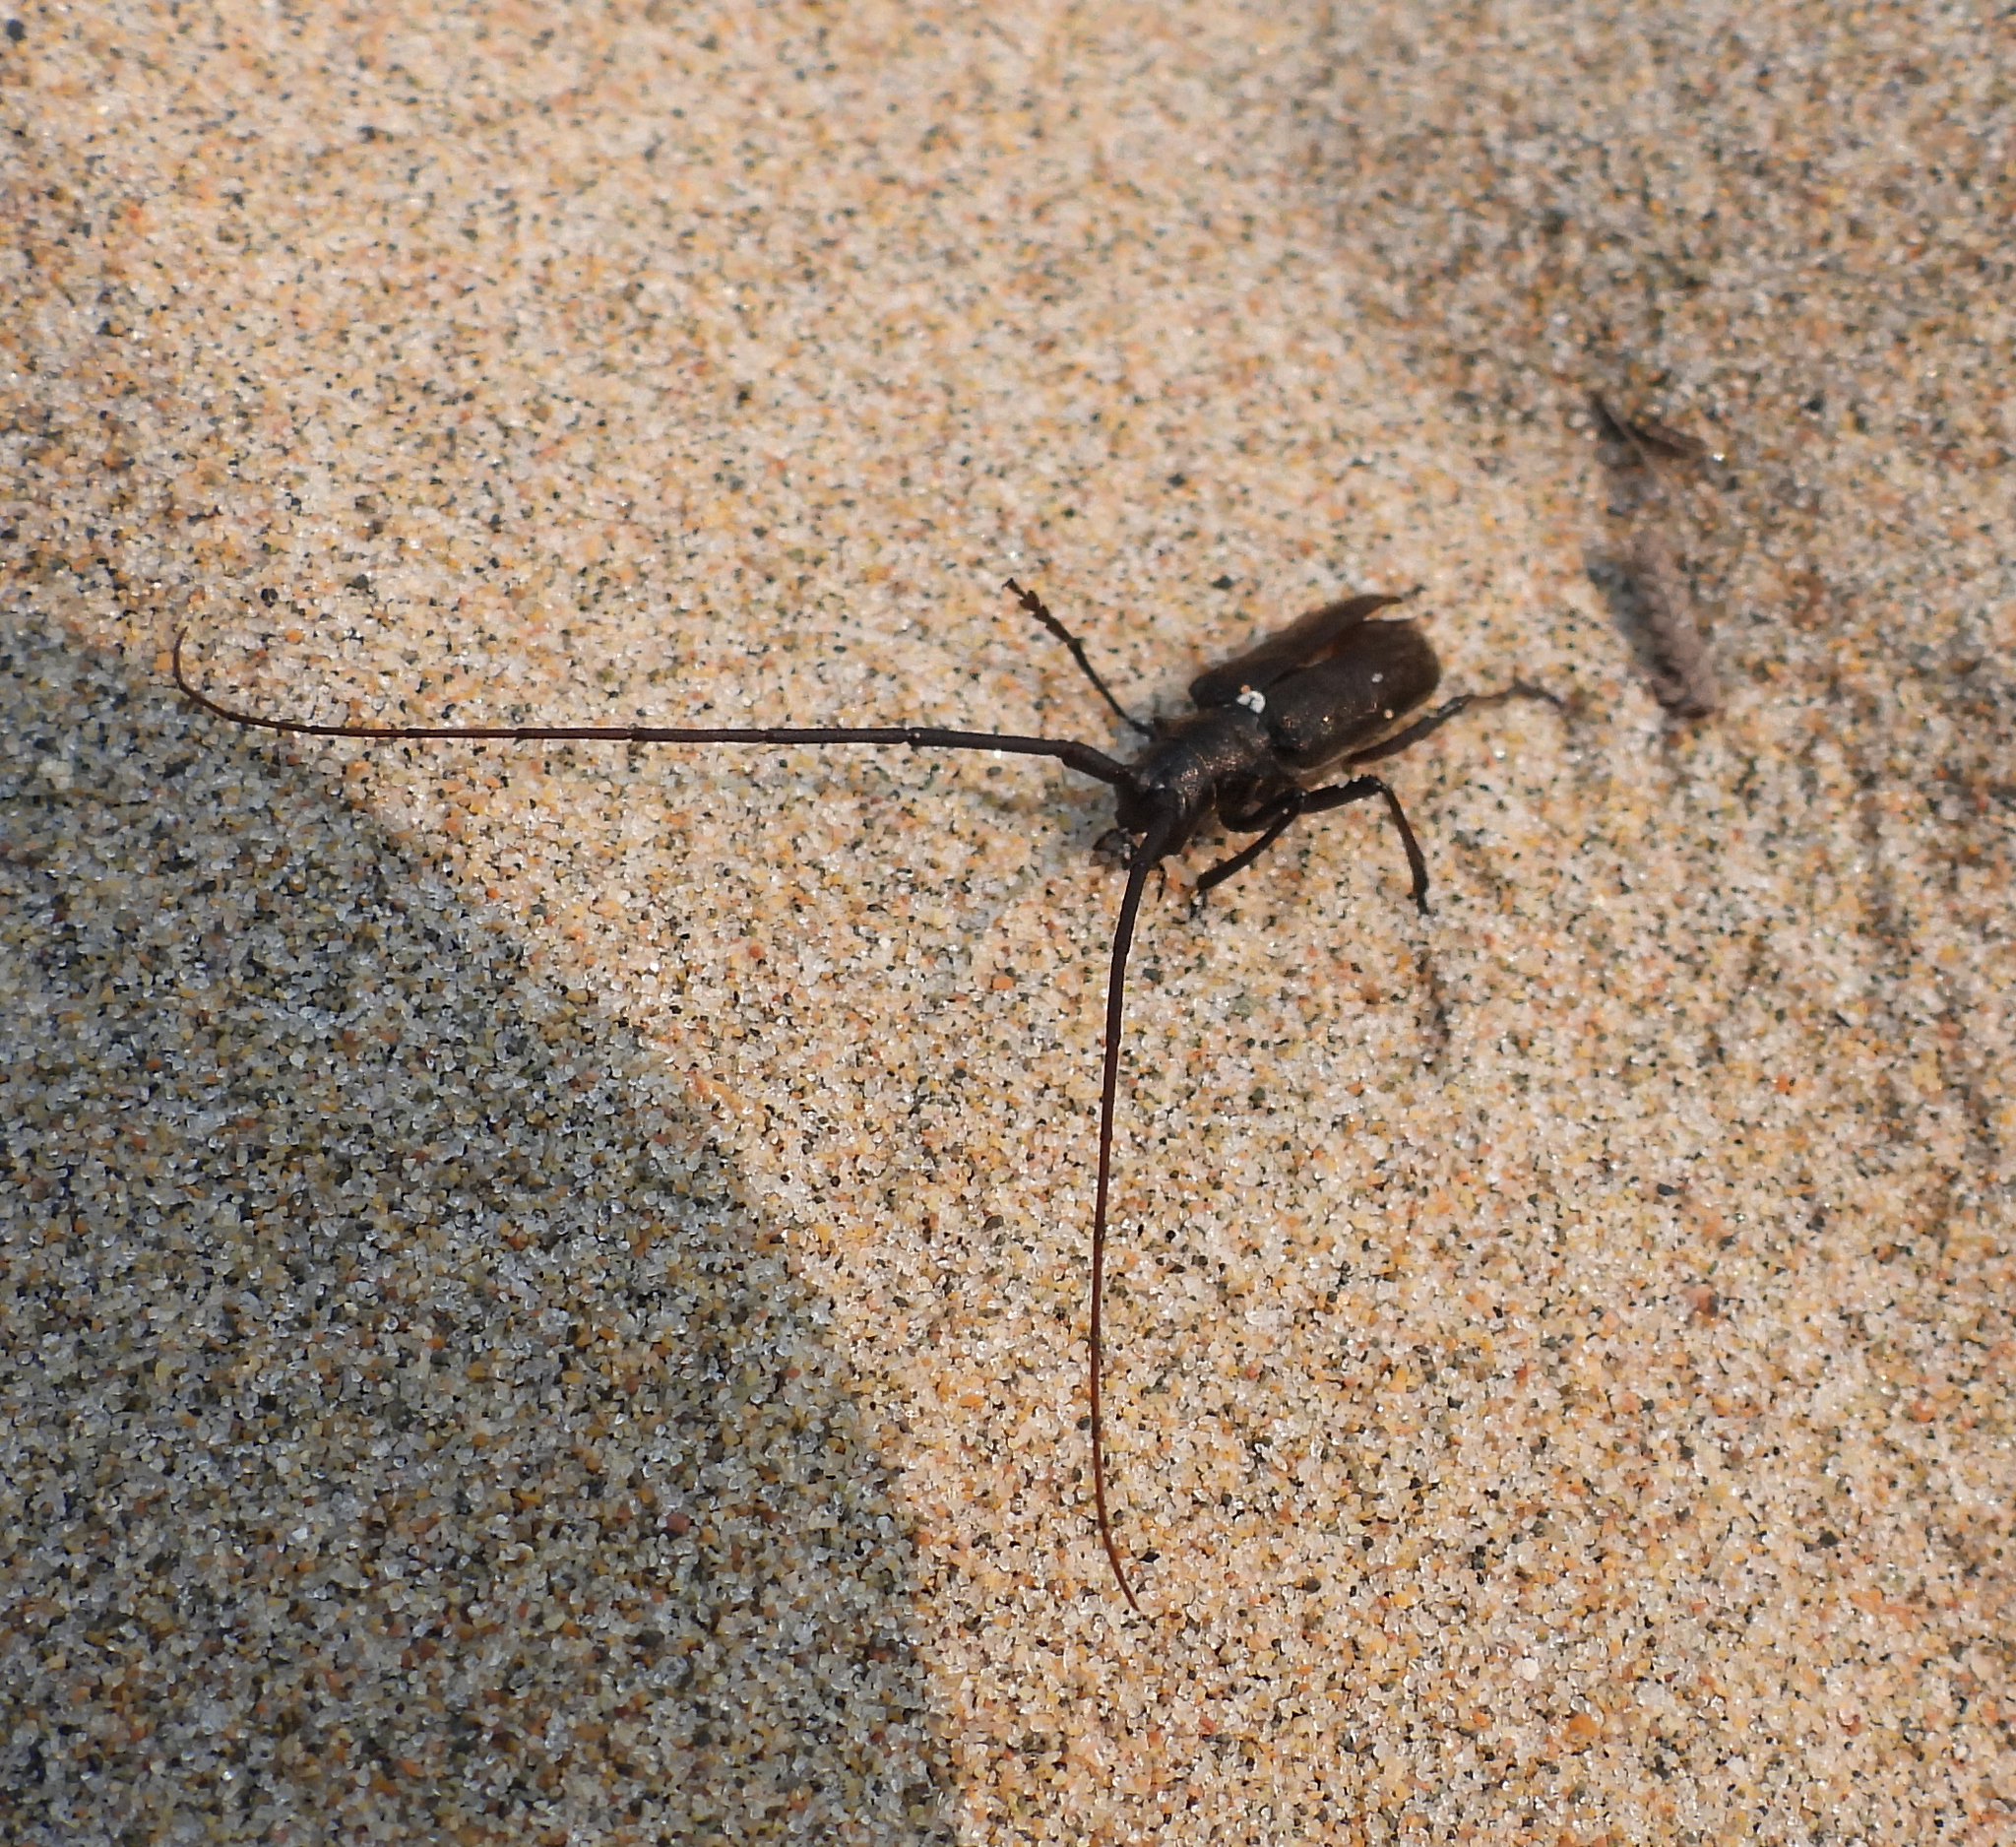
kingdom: Animalia
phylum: Arthropoda
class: Insecta
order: Coleoptera
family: Cerambycidae
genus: Monochamus
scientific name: Monochamus scutellatus
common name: White-spotted sawyer beetle
